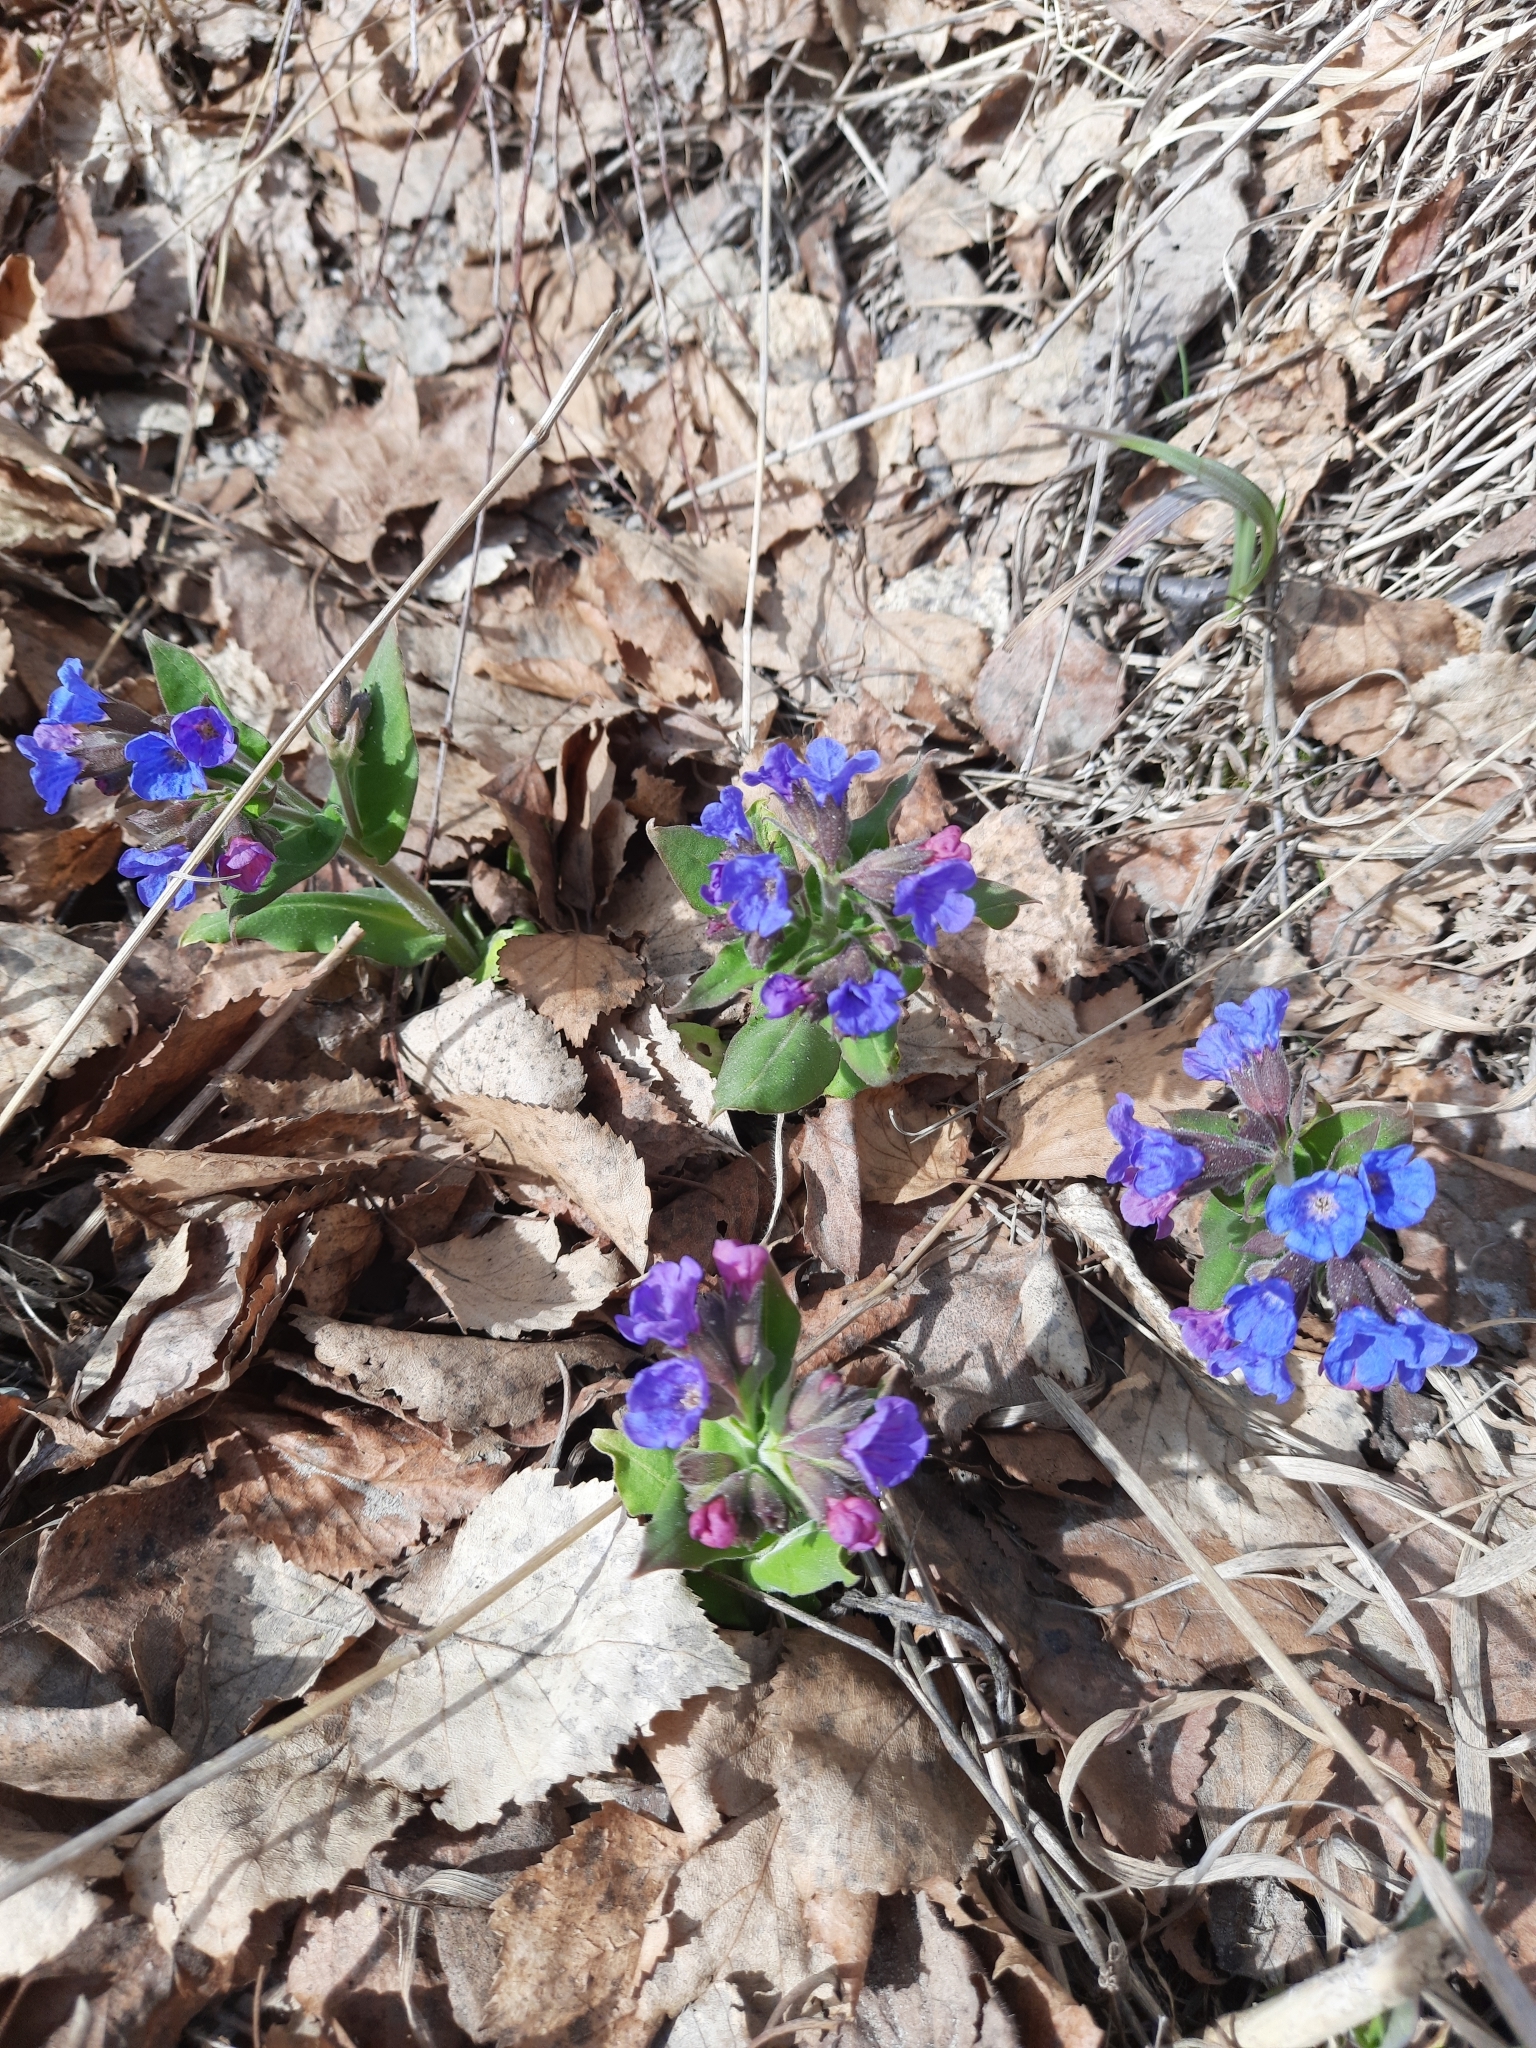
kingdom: Plantae
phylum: Tracheophyta
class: Magnoliopsida
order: Boraginales
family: Boraginaceae
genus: Pulmonaria
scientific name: Pulmonaria mollis
